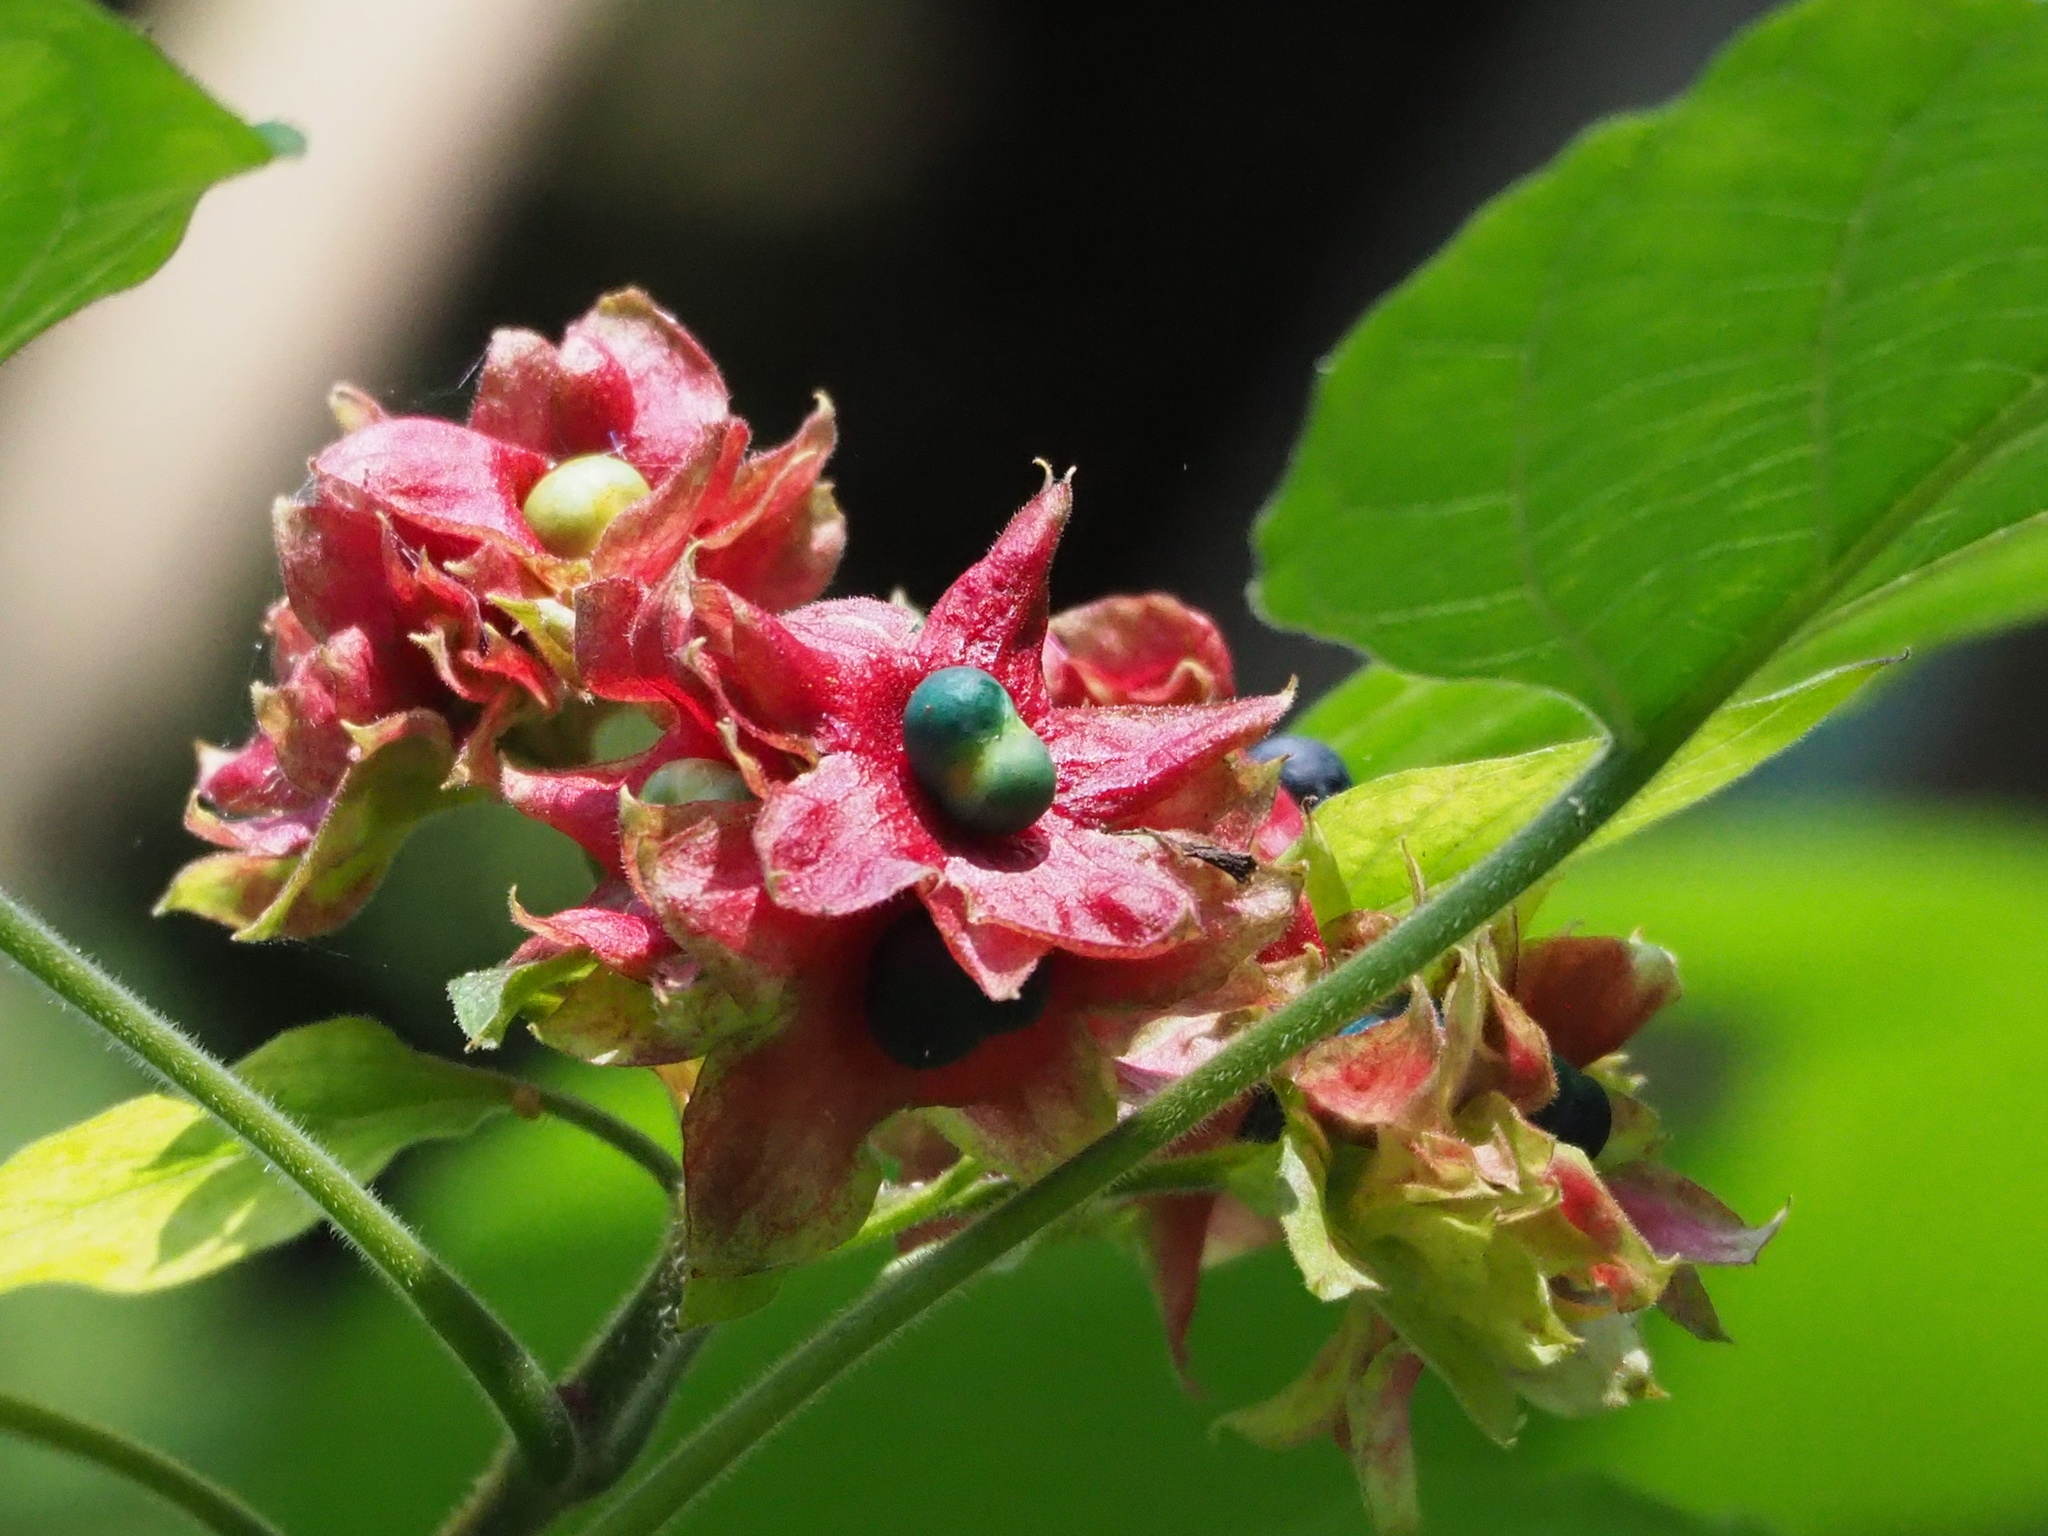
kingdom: Plantae
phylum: Tracheophyta
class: Magnoliopsida
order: Lamiales
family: Lamiaceae
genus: Clerodendrum
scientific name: Clerodendrum trichotomum
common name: Harlequin glorybower
